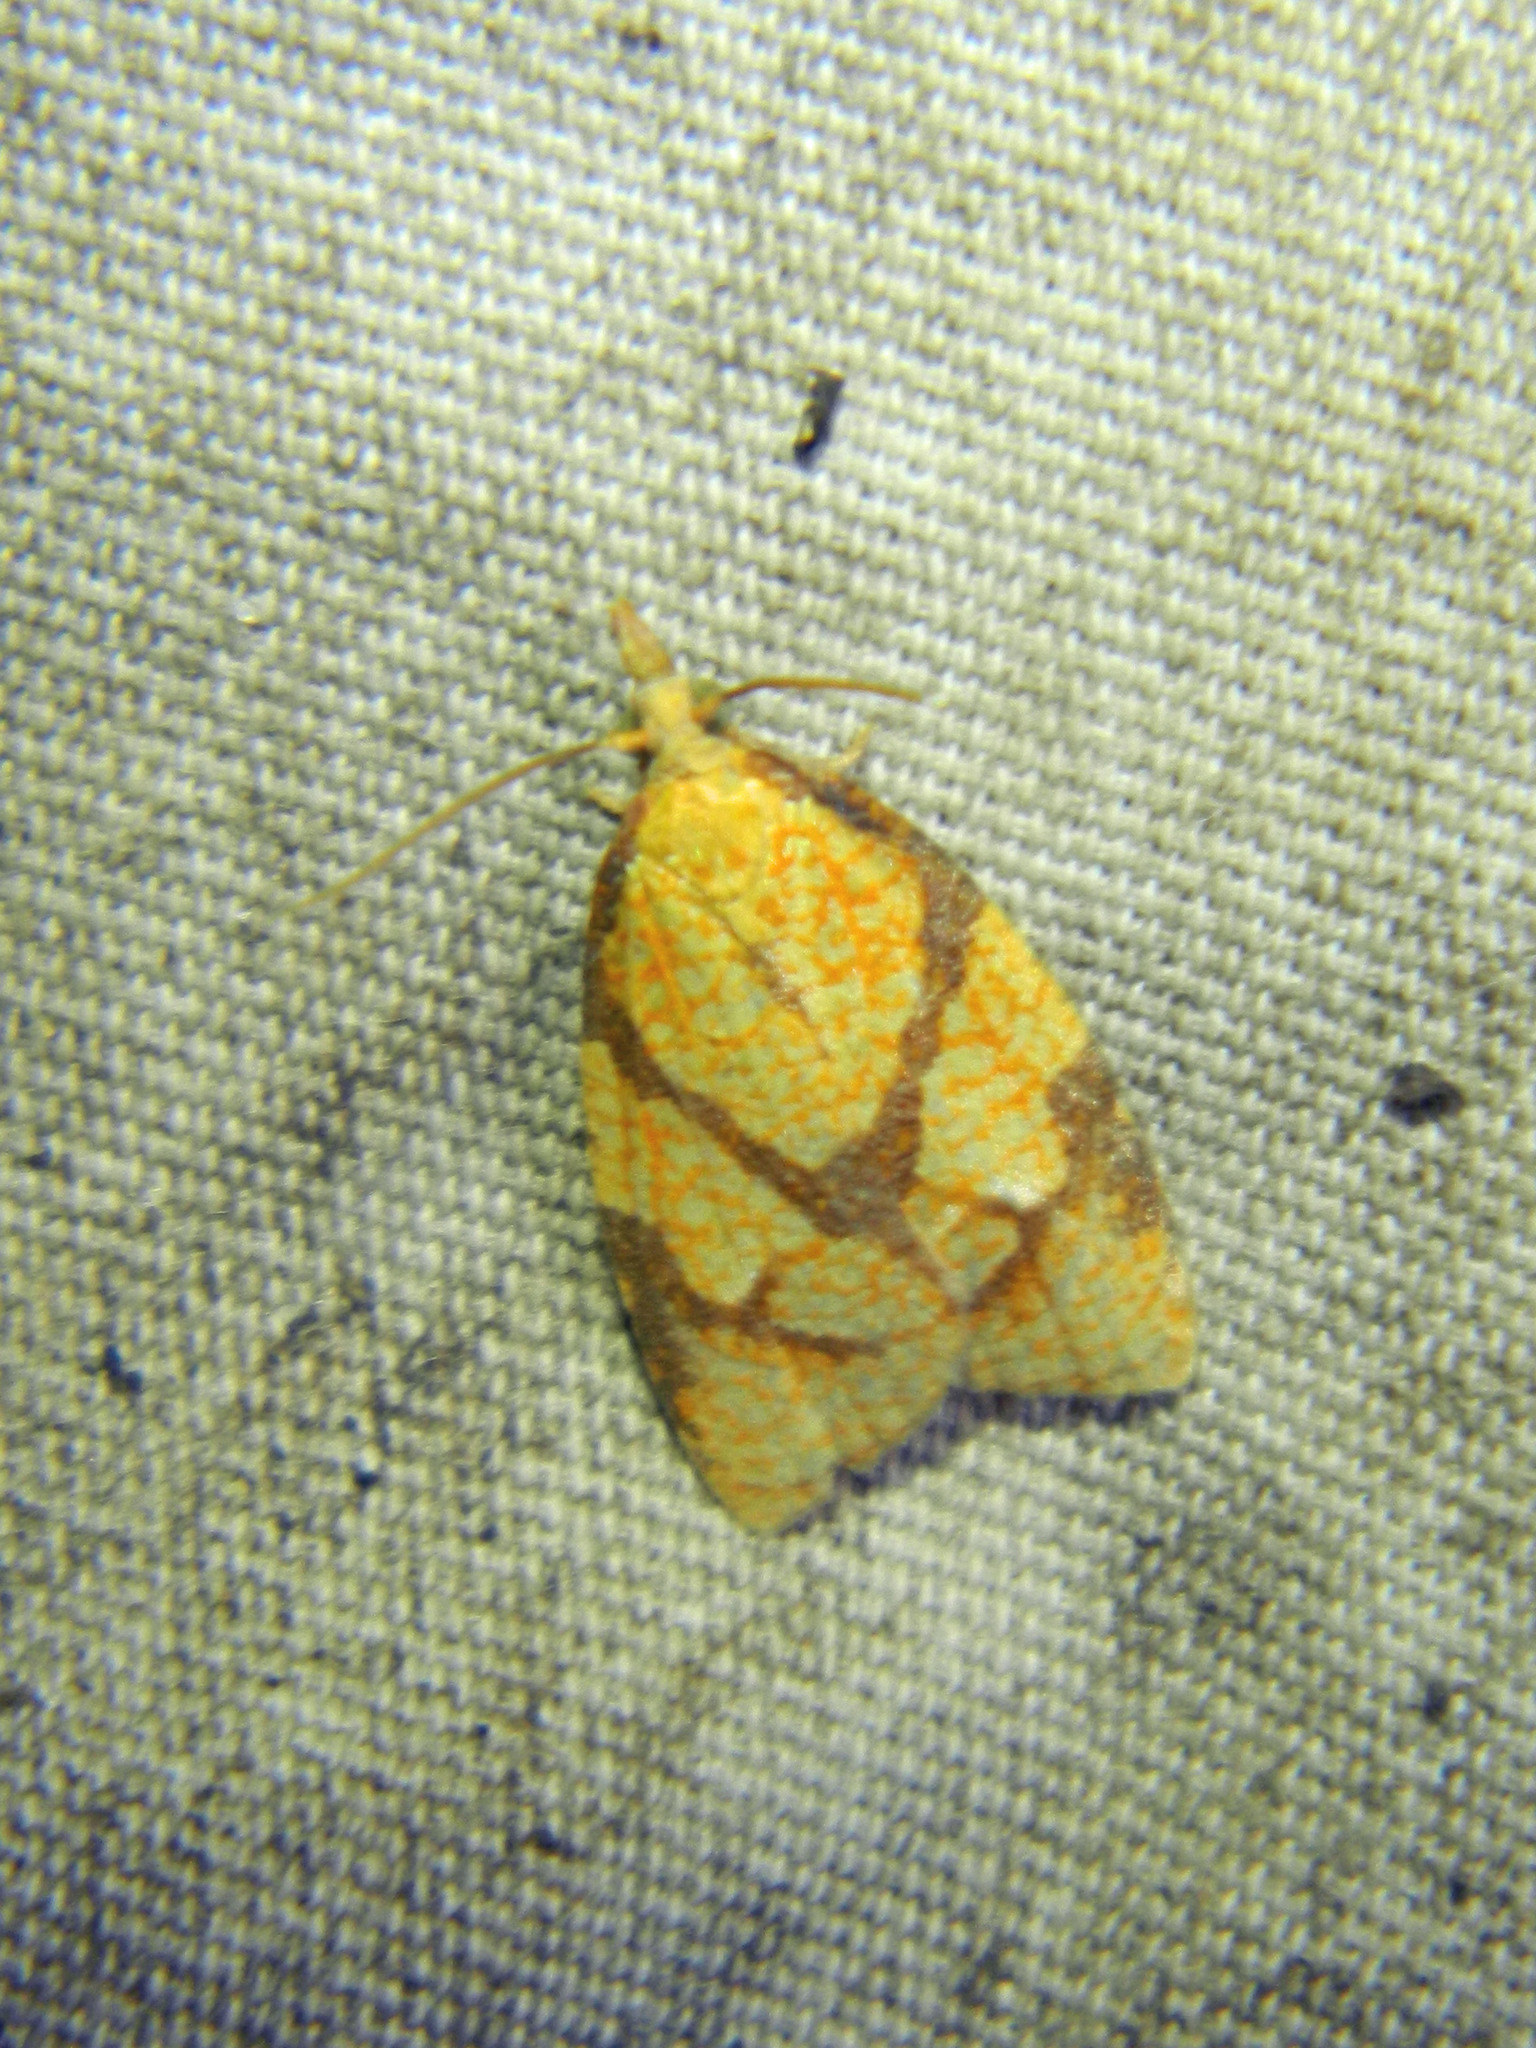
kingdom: Animalia
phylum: Arthropoda
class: Insecta
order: Lepidoptera
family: Tortricidae
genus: Cenopis
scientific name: Cenopis reticulatana
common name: Reticulated fruitworm moth
